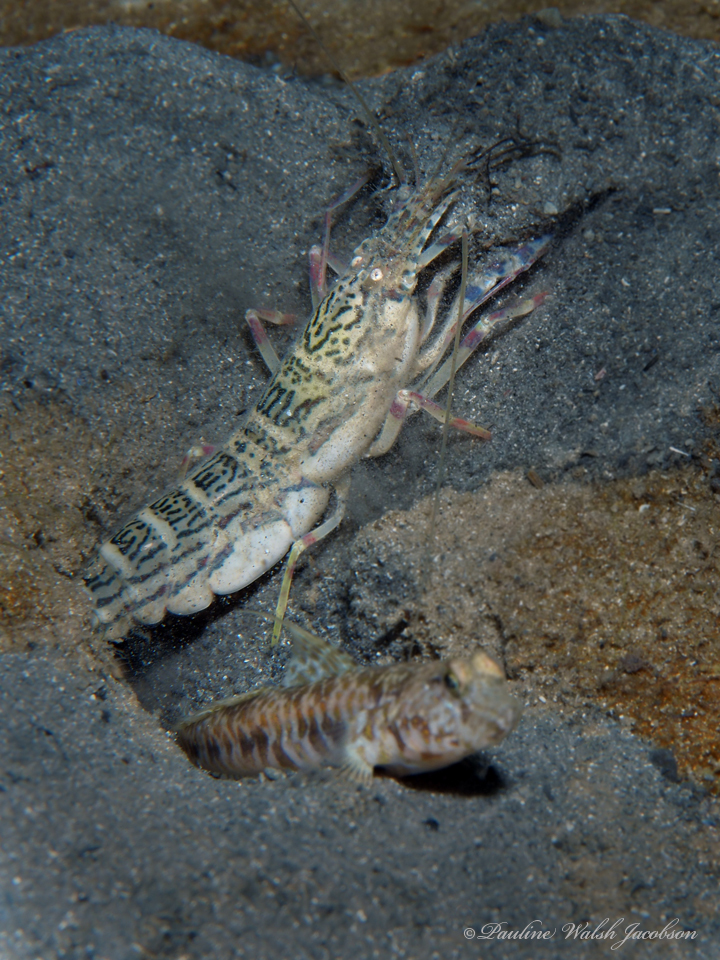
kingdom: Animalia
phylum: Arthropoda
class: Malacostraca
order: Decapoda
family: Alpheidae
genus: Alpheus
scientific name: Alpheus floridanus
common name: Sand snapping shrimp
